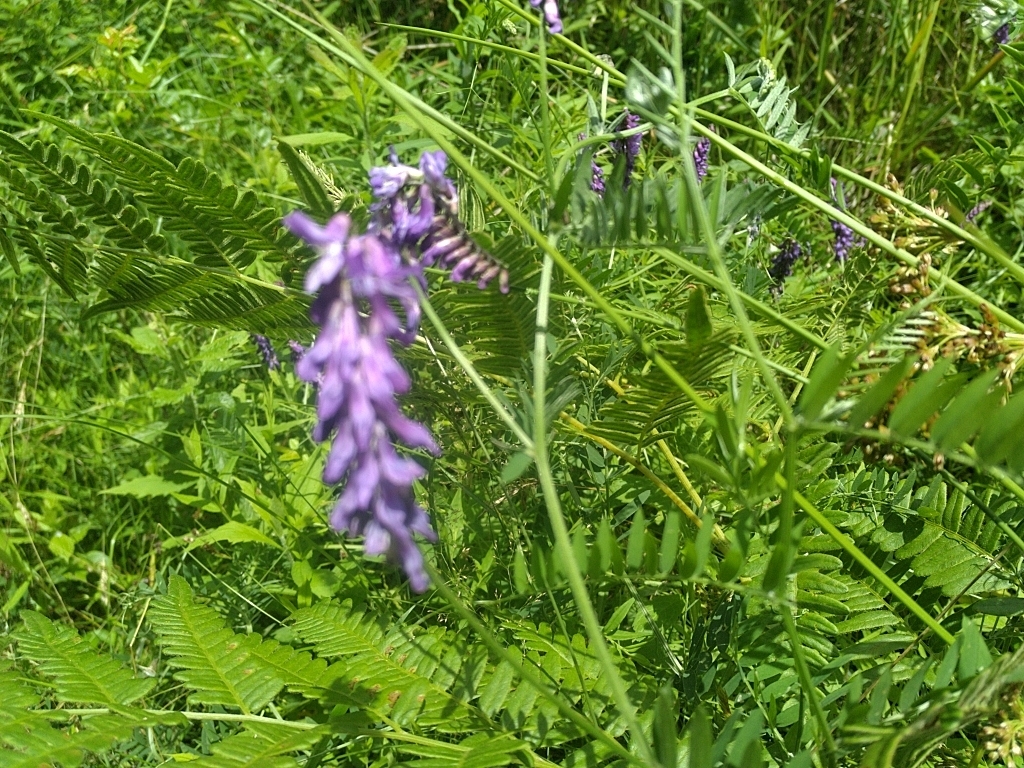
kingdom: Plantae
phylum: Tracheophyta
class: Magnoliopsida
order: Fabales
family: Fabaceae
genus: Vicia
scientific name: Vicia cracca
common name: Bird vetch
